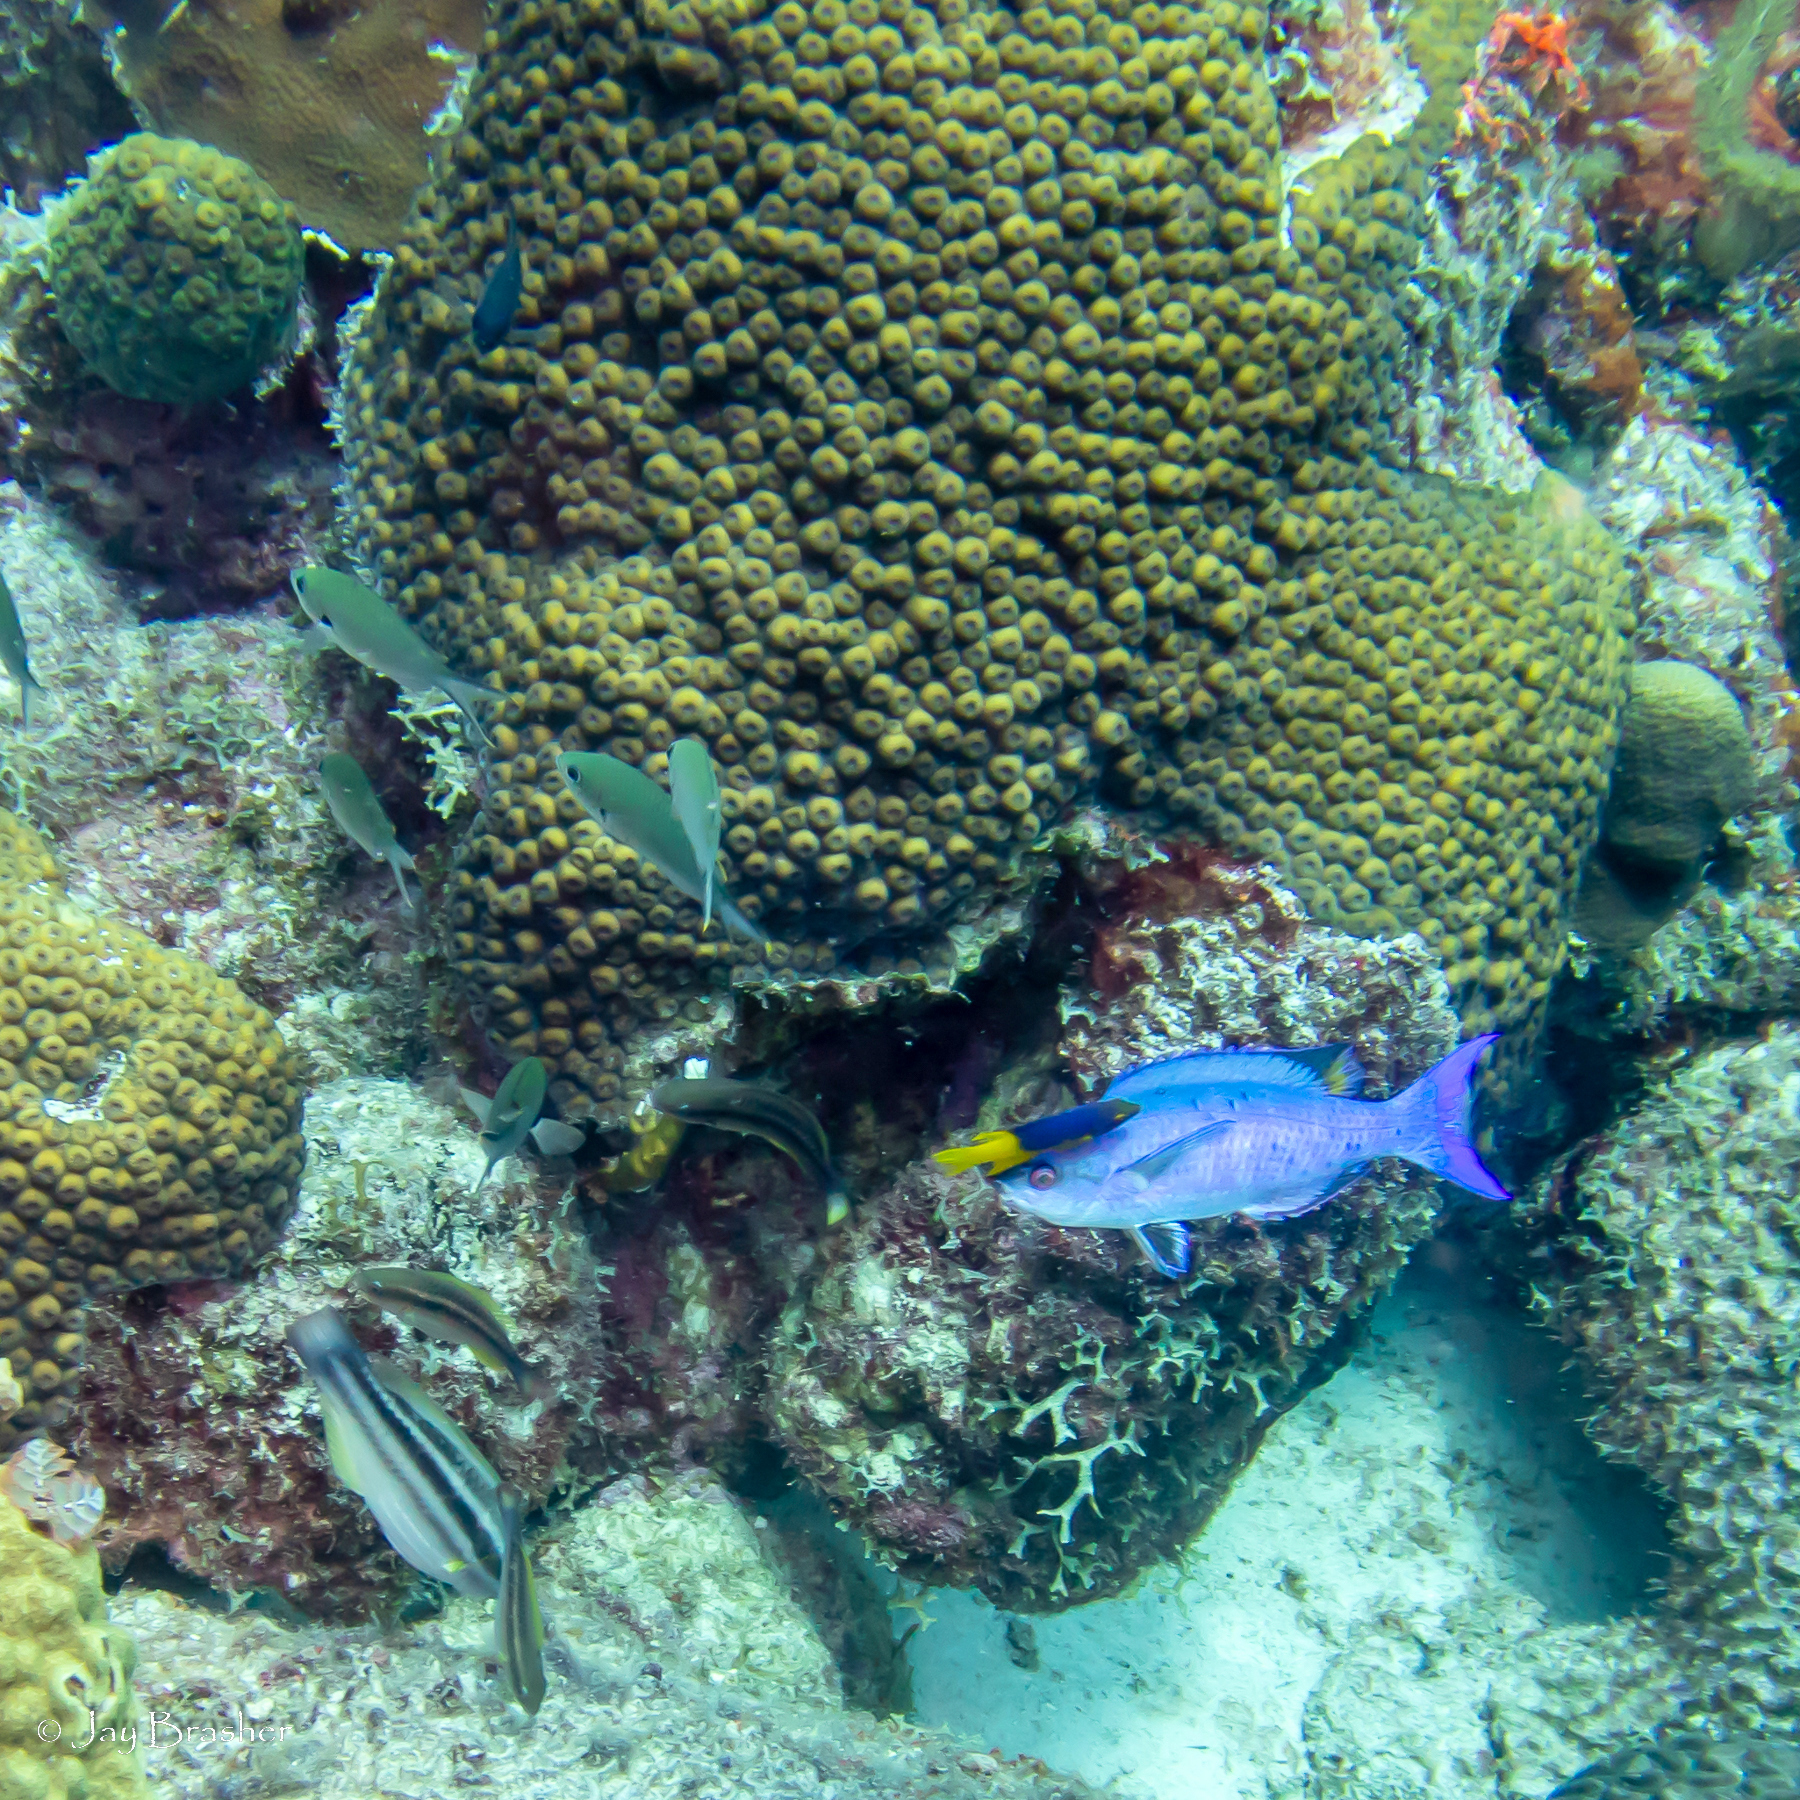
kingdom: Animalia
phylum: Cnidaria
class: Anthozoa
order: Scleractinia
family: Montastraeidae
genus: Montastraea
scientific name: Montastraea cavernosa
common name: Great star coral
